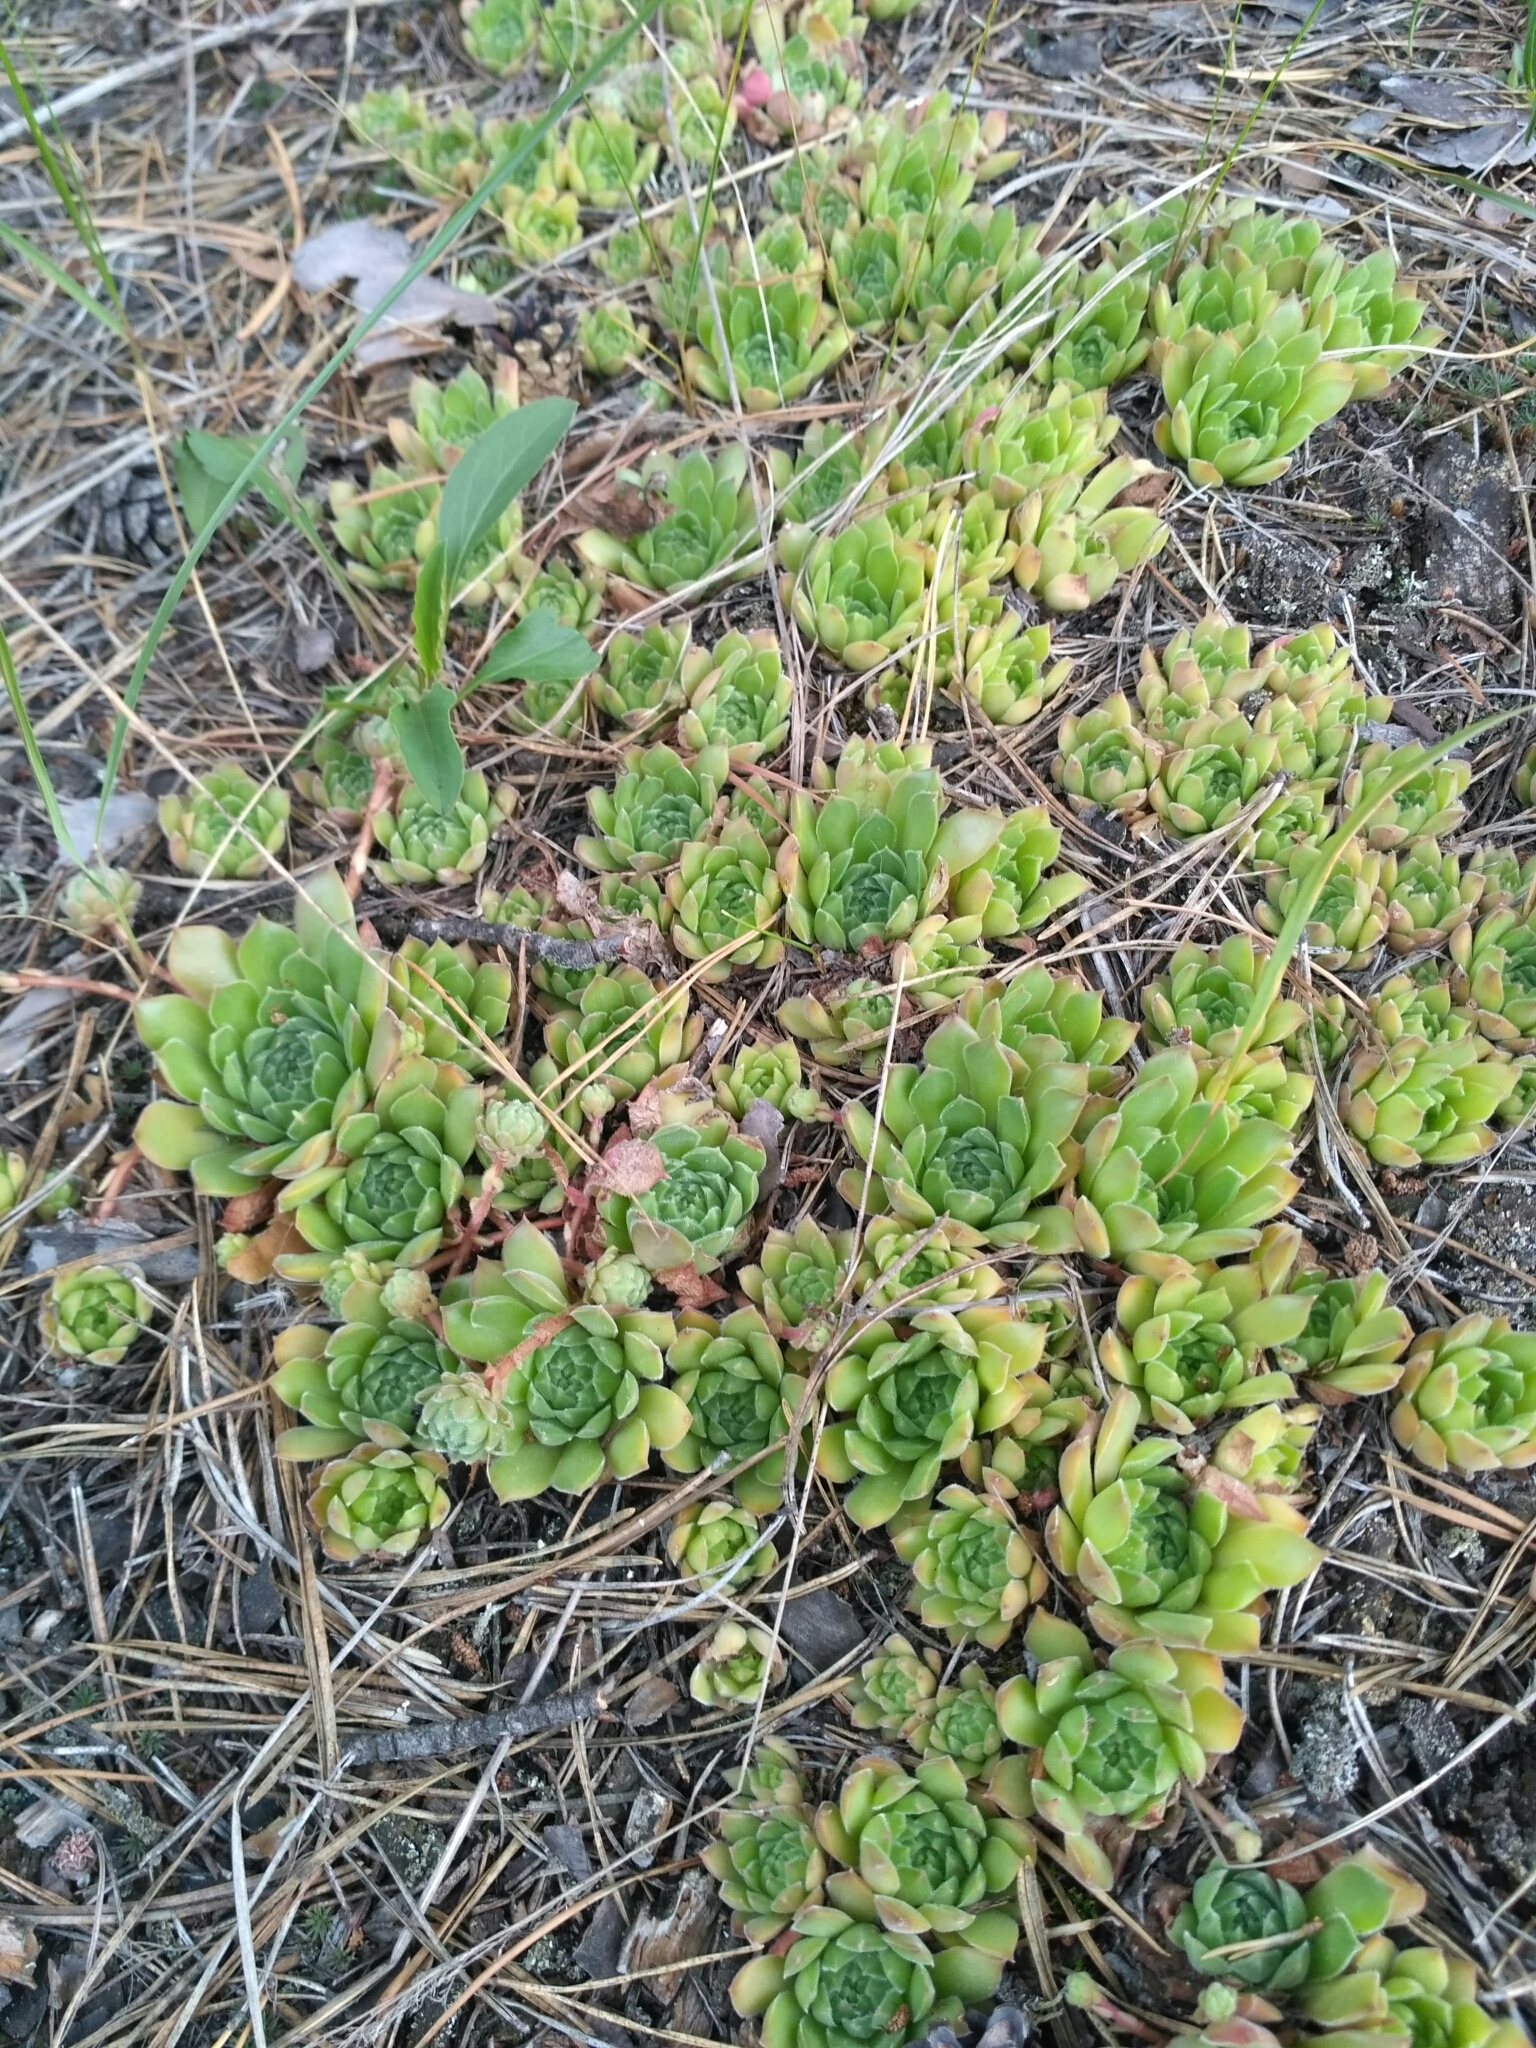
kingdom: Plantae
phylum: Tracheophyta
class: Magnoliopsida
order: Saxifragales
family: Crassulaceae
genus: Sempervivum
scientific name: Sempervivum ruthenicum
